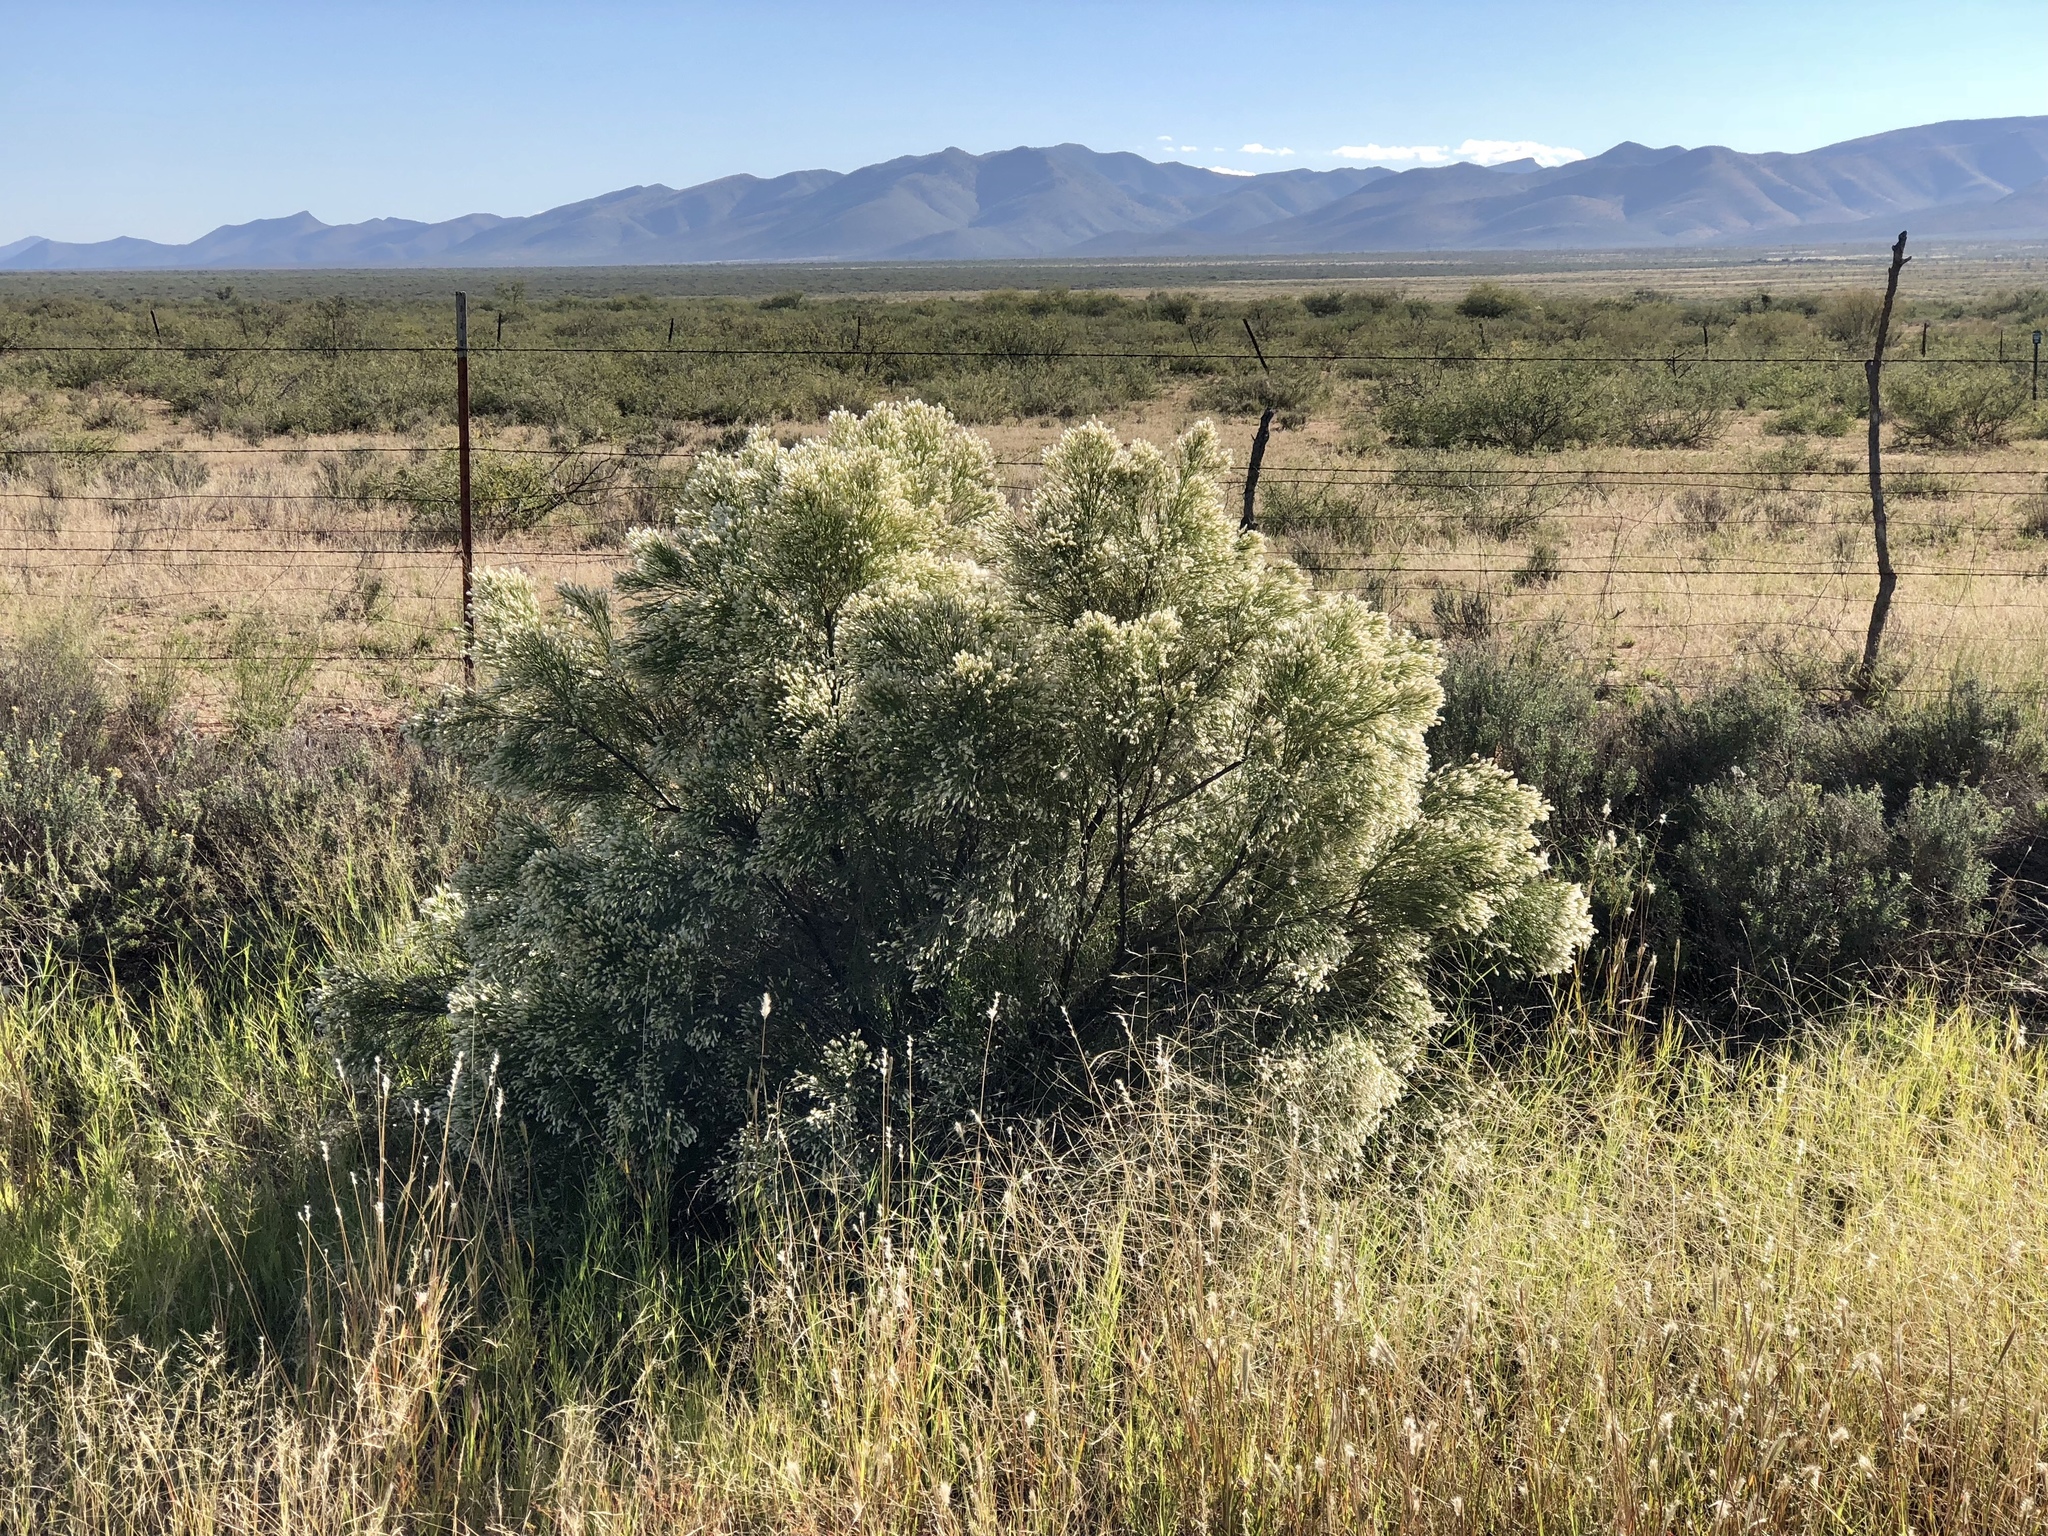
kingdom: Plantae
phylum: Tracheophyta
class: Magnoliopsida
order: Asterales
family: Asteraceae
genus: Baccharis
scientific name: Baccharis sarothroides
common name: Desert-broom
